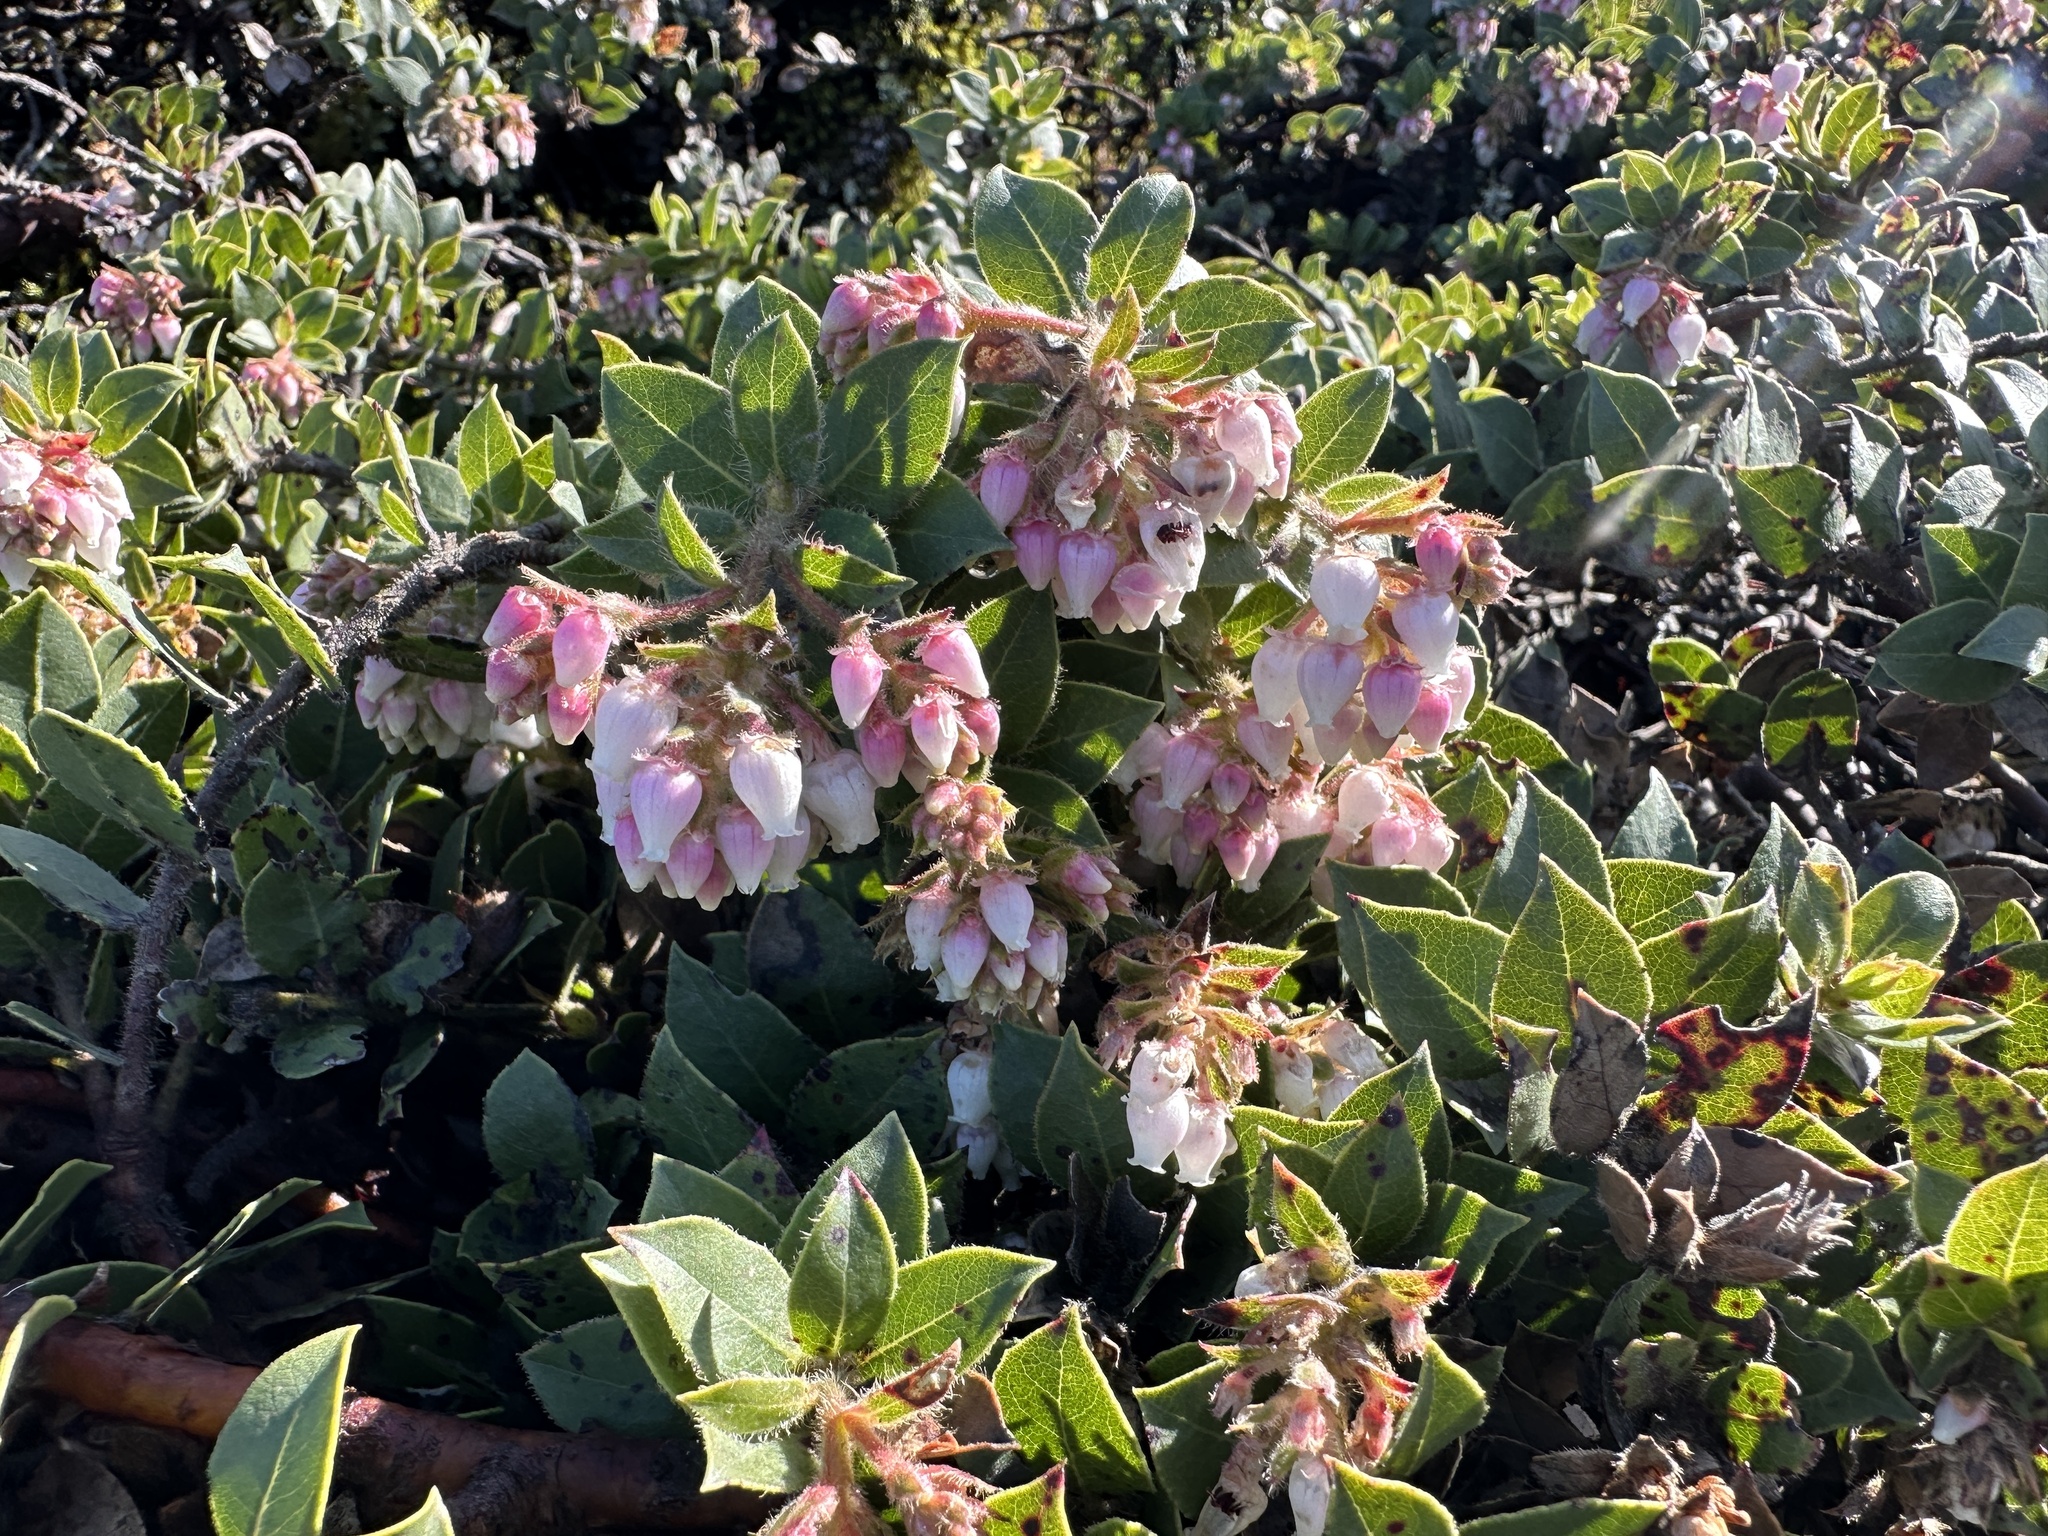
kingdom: Plantae
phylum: Tracheophyta
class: Magnoliopsida
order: Ericales
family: Ericaceae
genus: Arctostaphylos
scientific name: Arctostaphylos imbricata
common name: San bruno mountain manzanita
